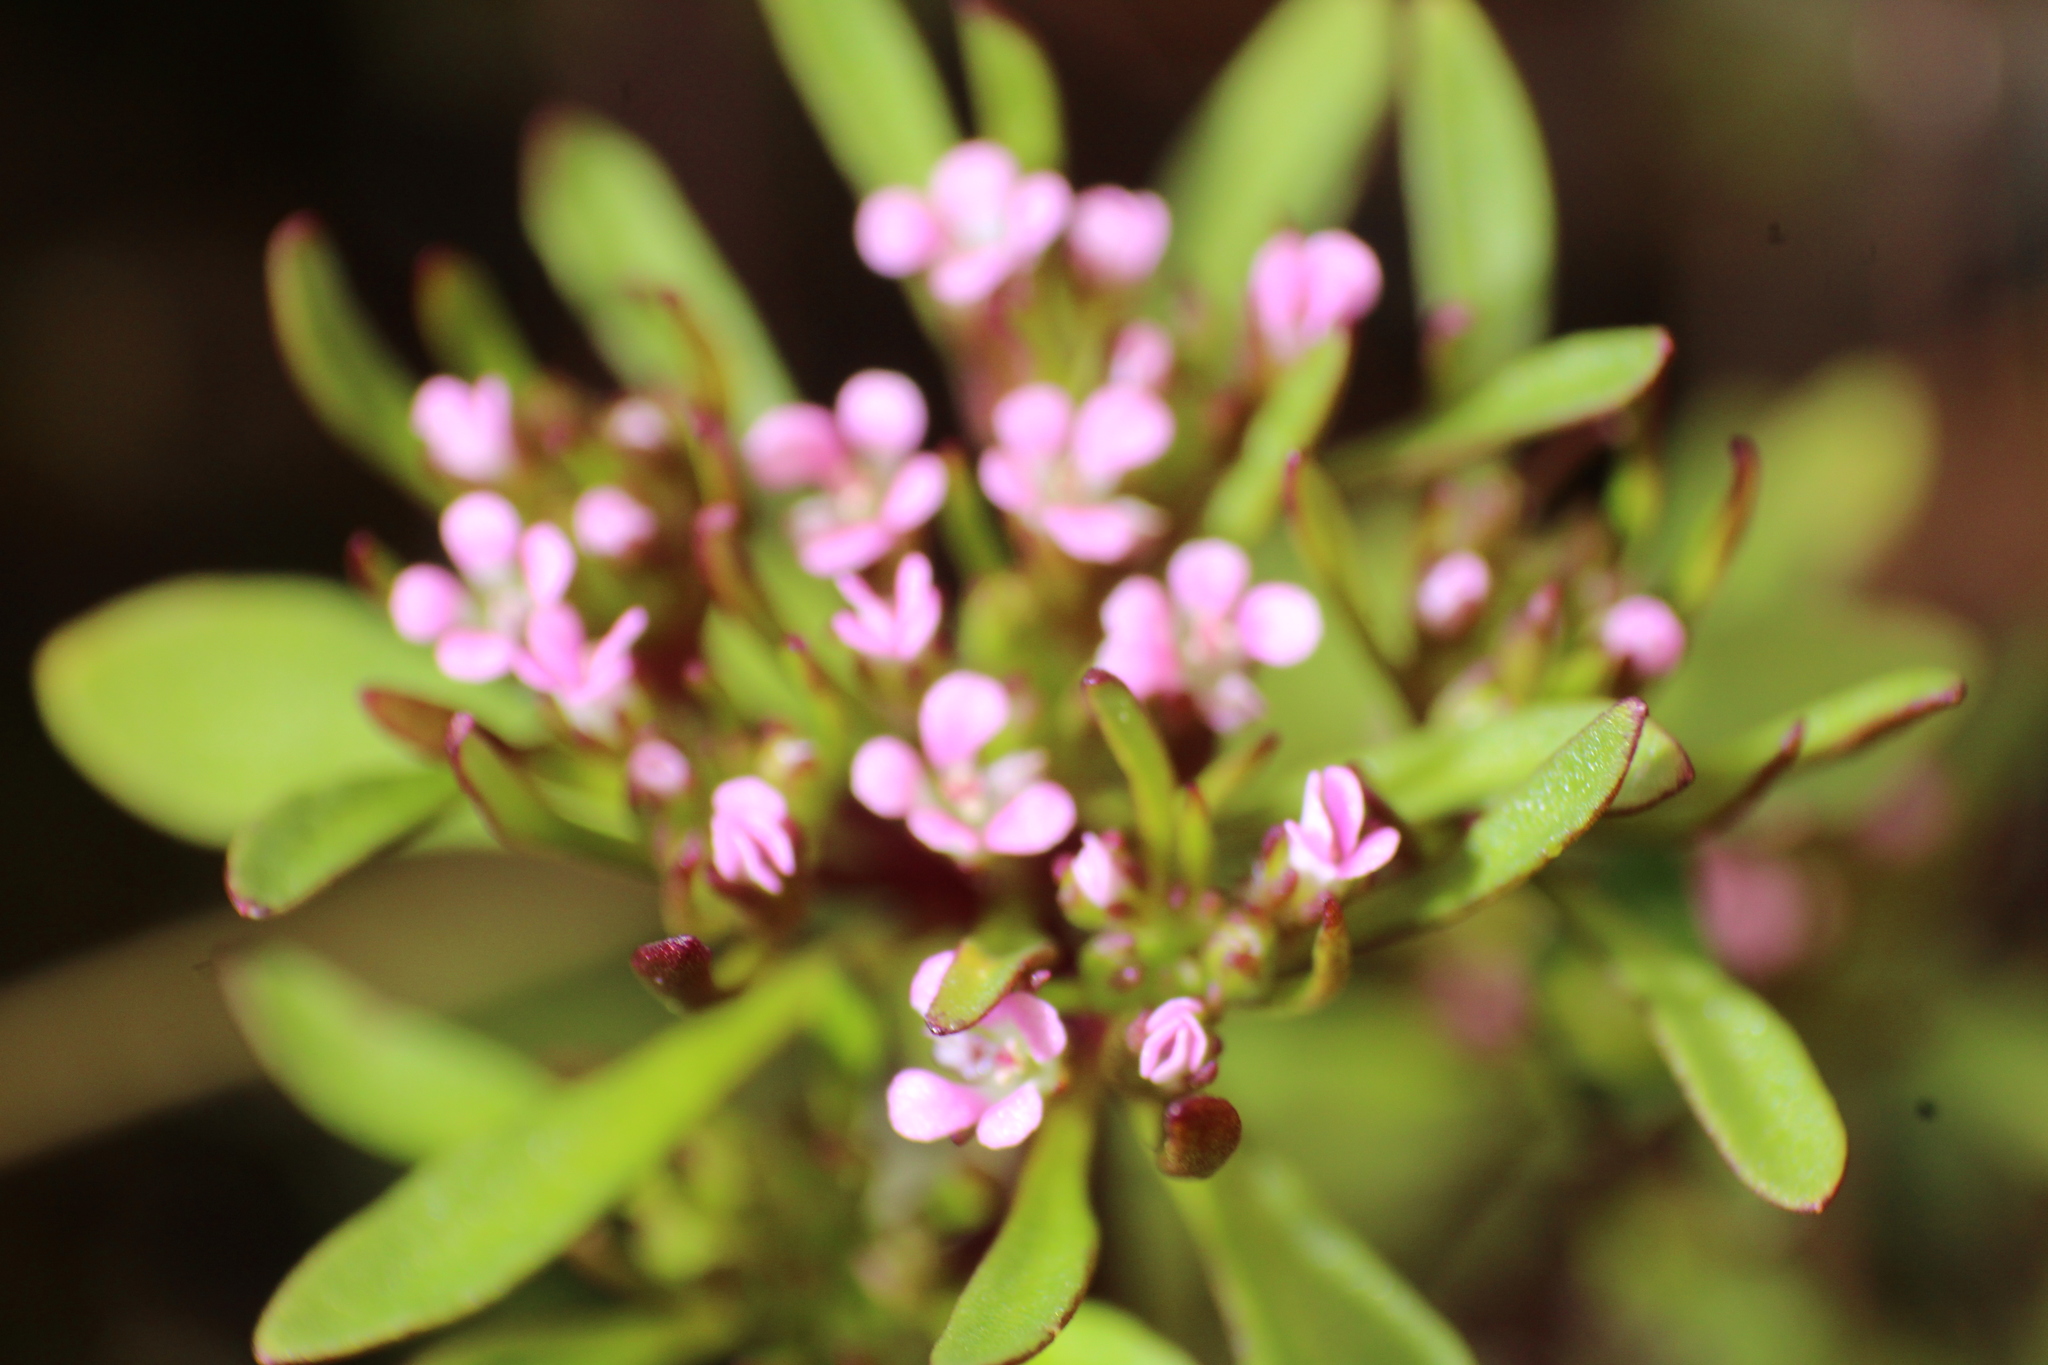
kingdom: Plantae
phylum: Tracheophyta
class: Magnoliopsida
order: Asterales
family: Stylidiaceae
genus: Levenhookia
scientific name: Levenhookia pusilla
